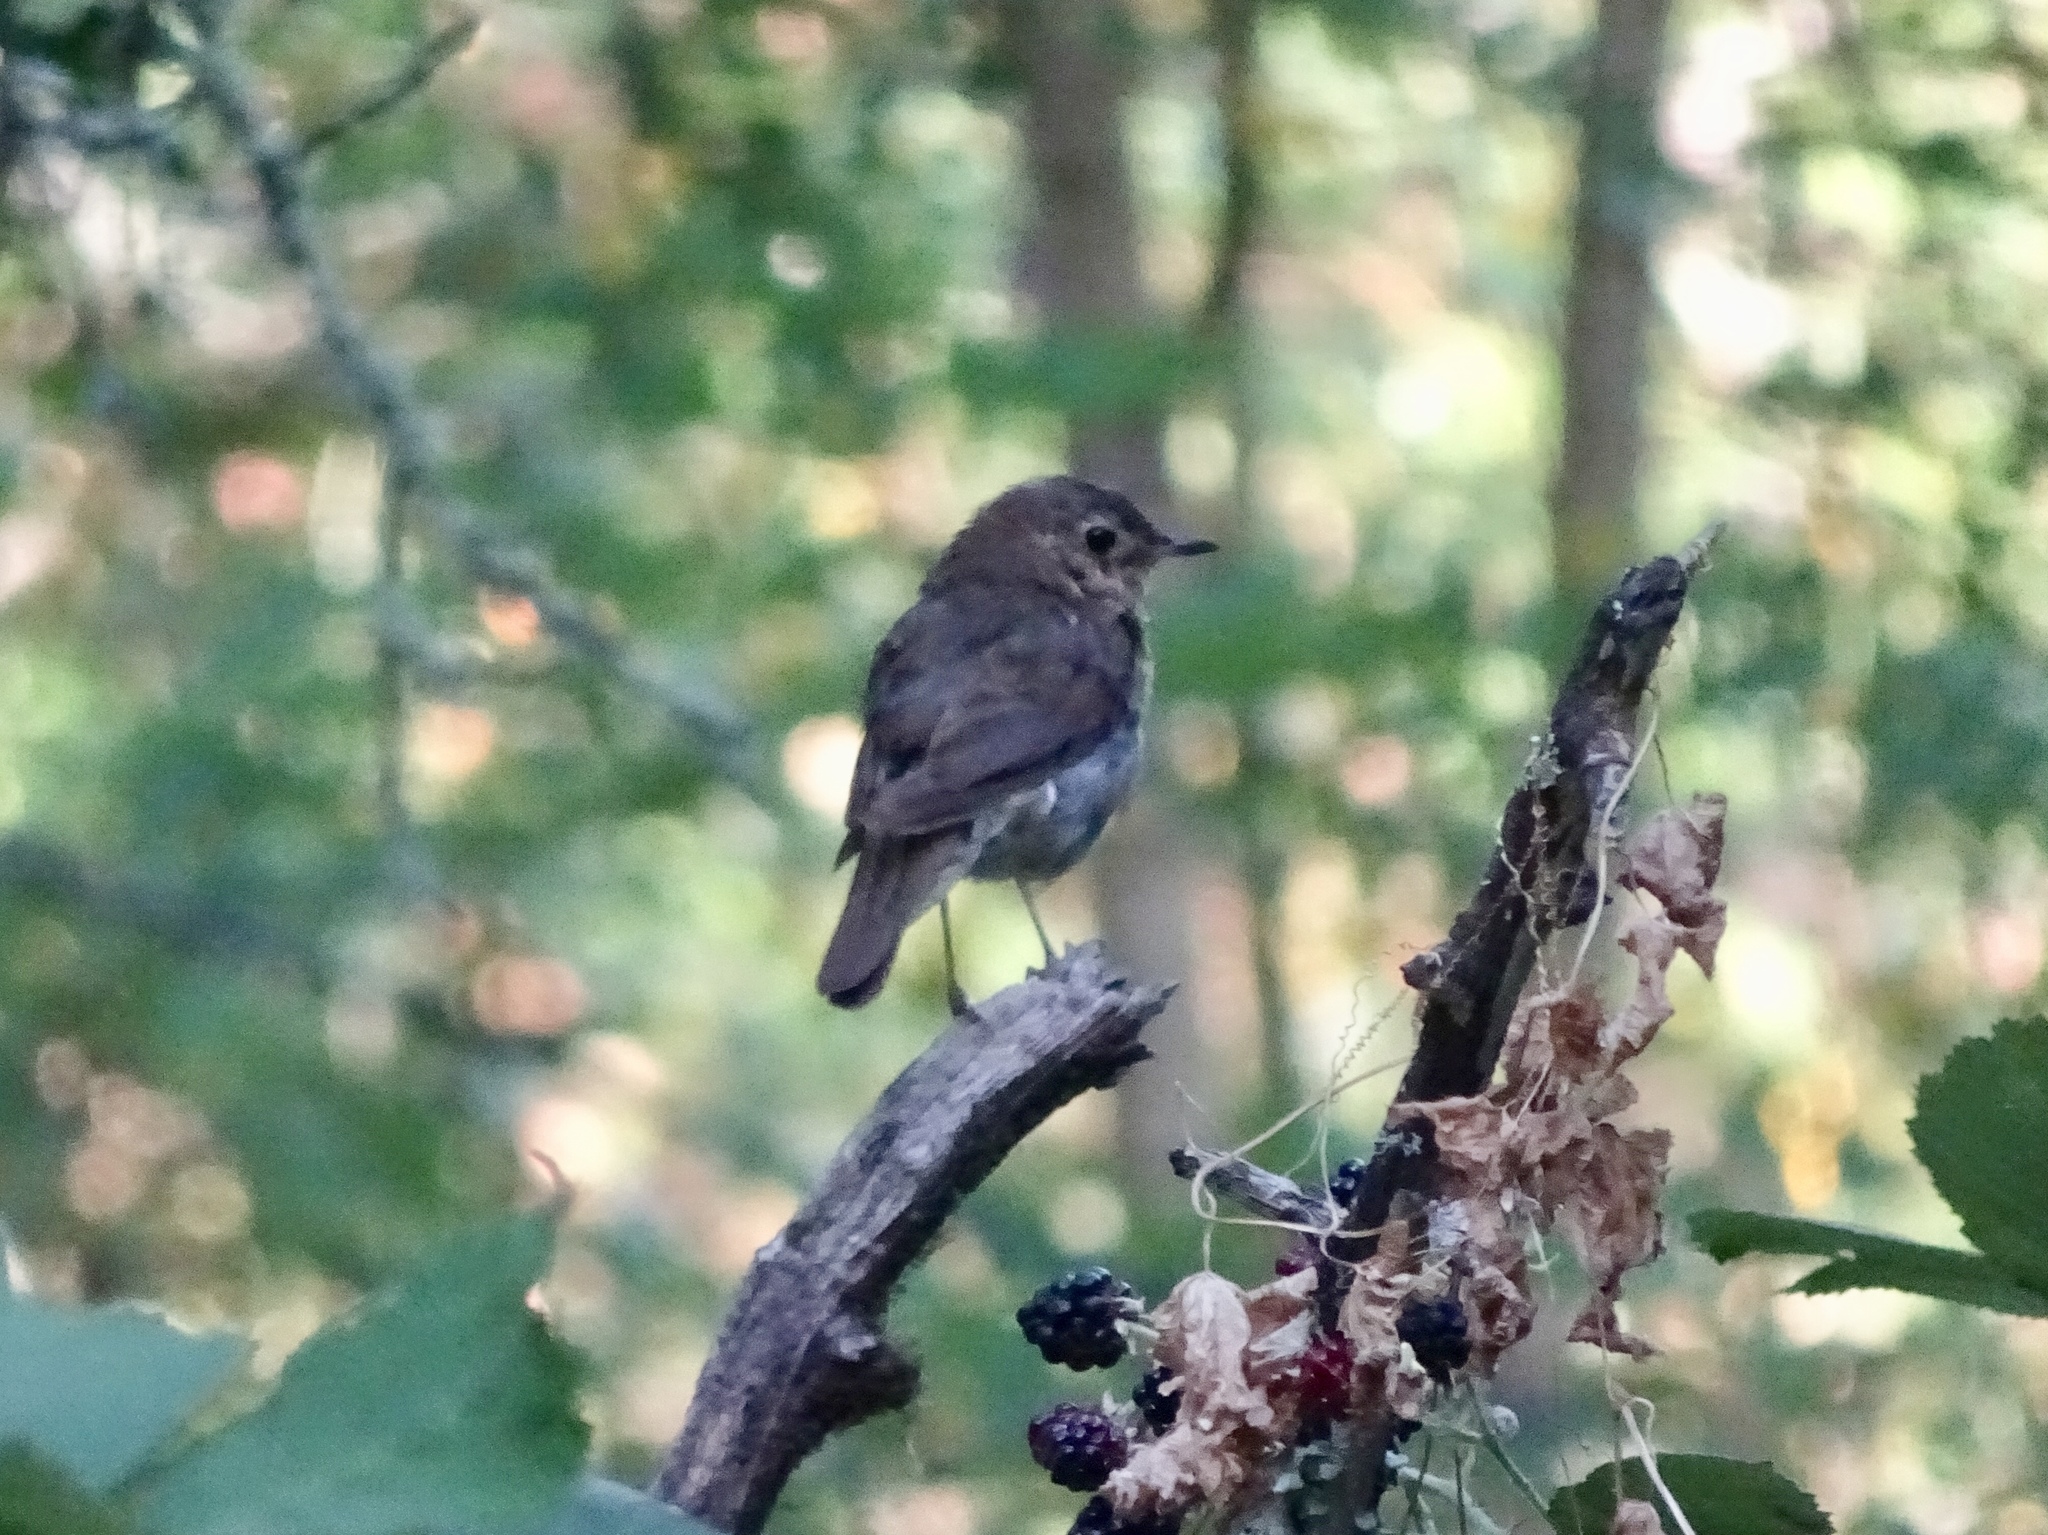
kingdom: Animalia
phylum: Chordata
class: Aves
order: Passeriformes
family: Turdidae
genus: Catharus
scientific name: Catharus ustulatus
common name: Swainson's thrush
